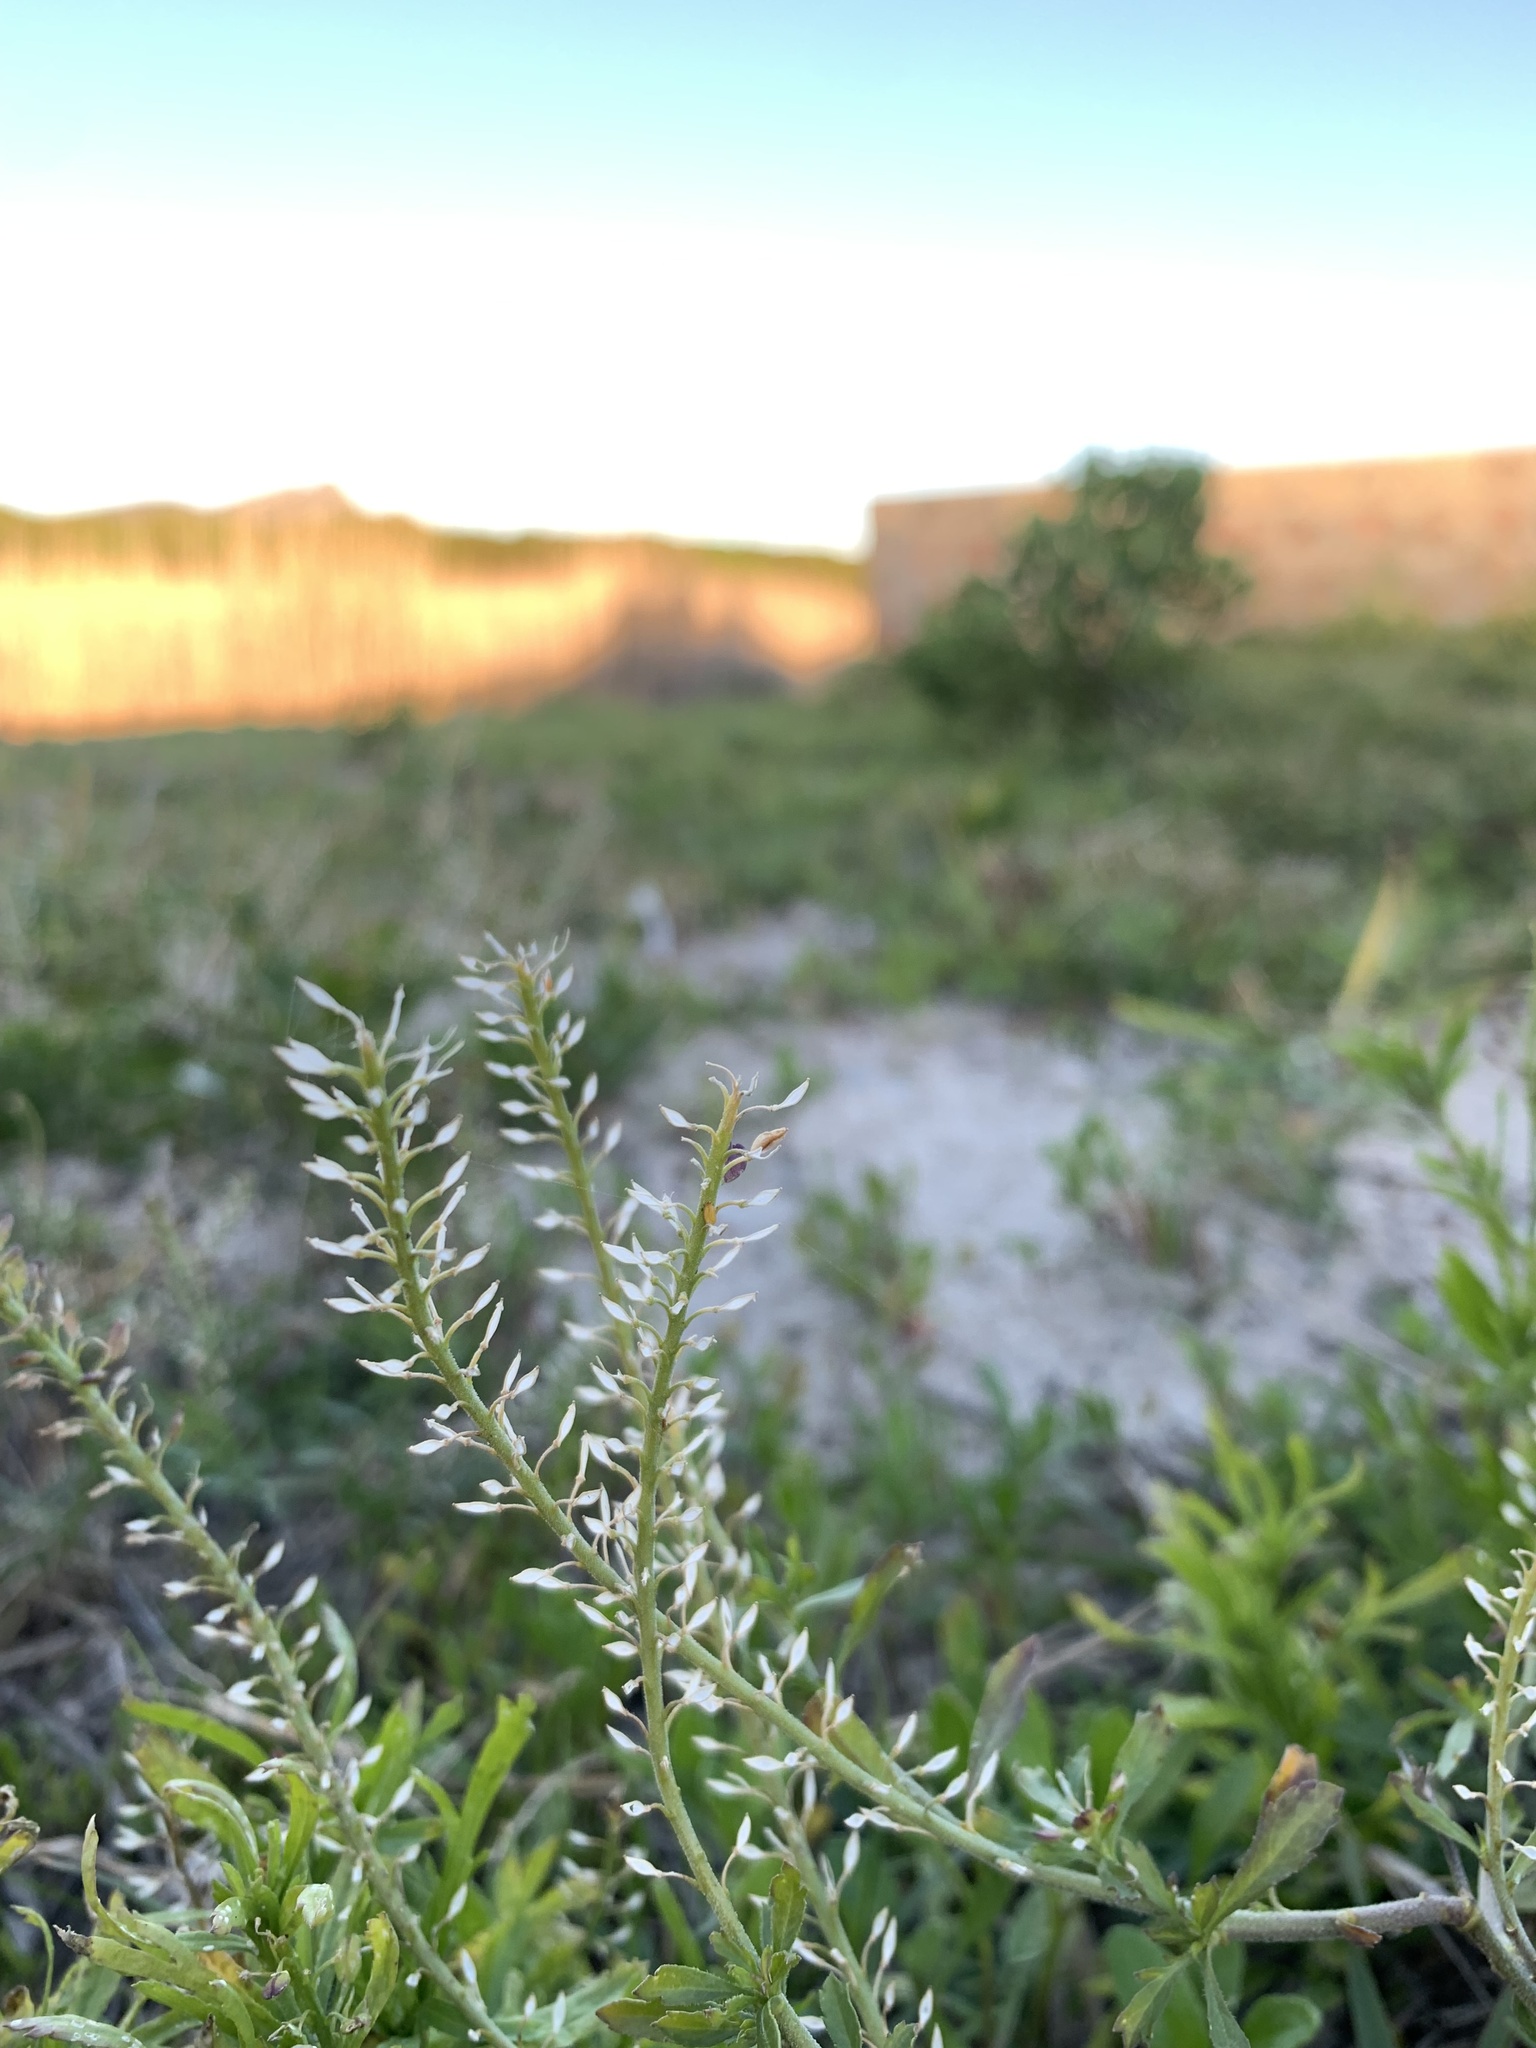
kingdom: Plantae
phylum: Tracheophyta
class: Magnoliopsida
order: Brassicales
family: Brassicaceae
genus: Lepidium
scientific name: Lepidium africanum
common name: African pepperwort
